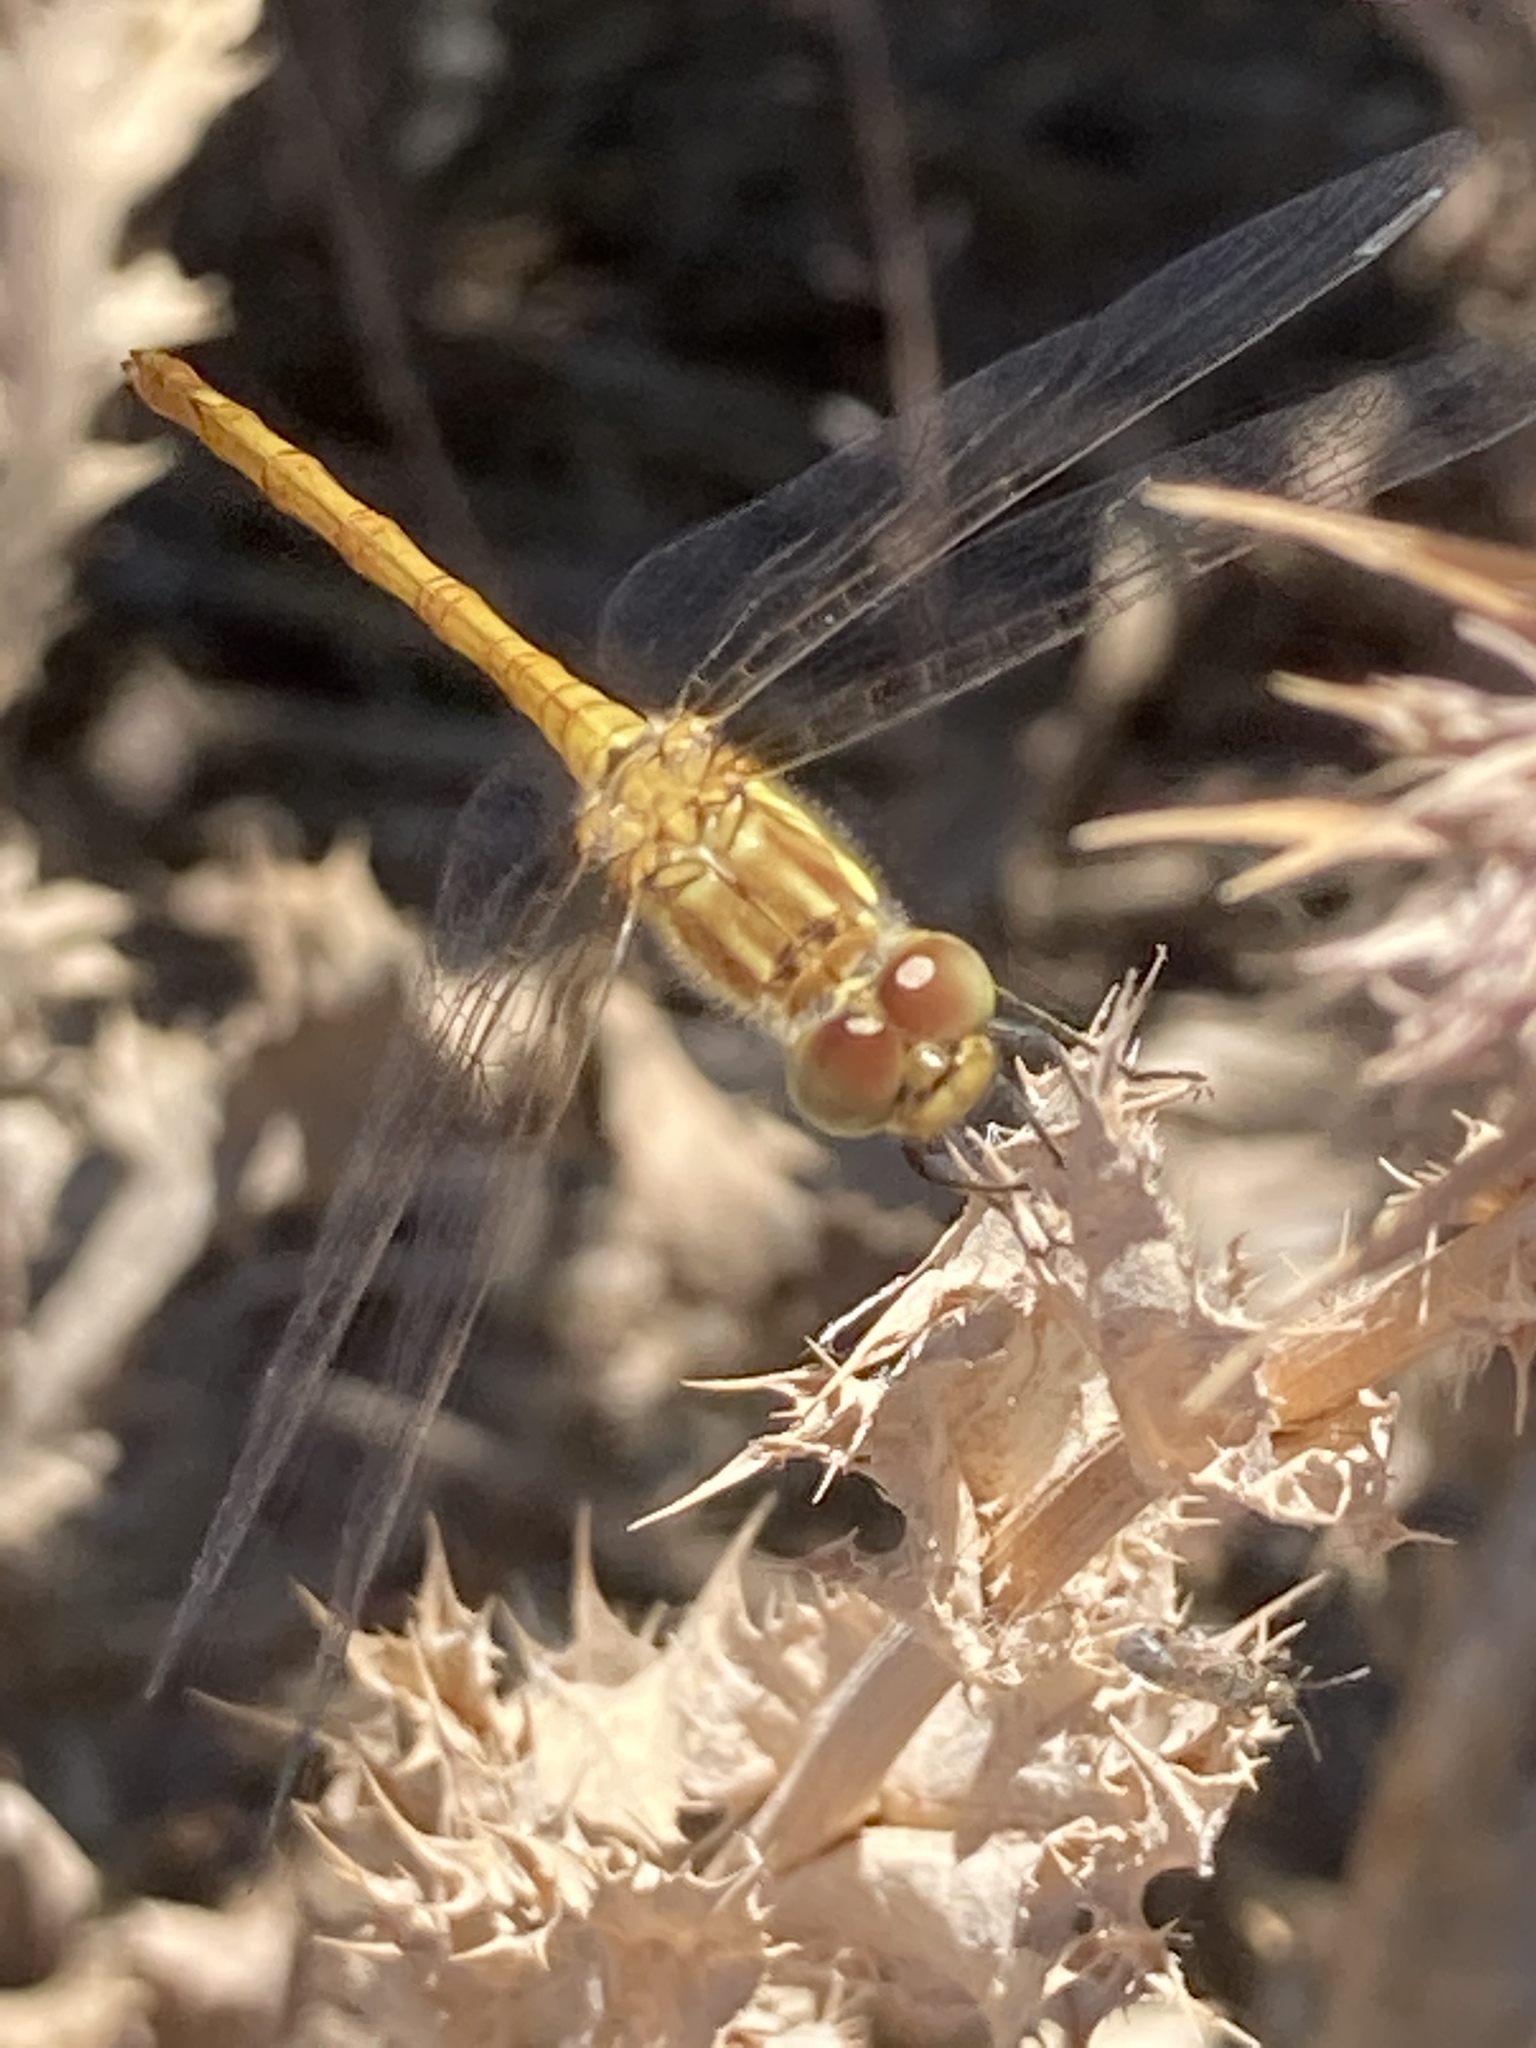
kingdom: Animalia
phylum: Arthropoda
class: Insecta
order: Odonata
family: Libellulidae
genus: Sympetrum
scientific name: Sympetrum meridionale
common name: Southern darter
